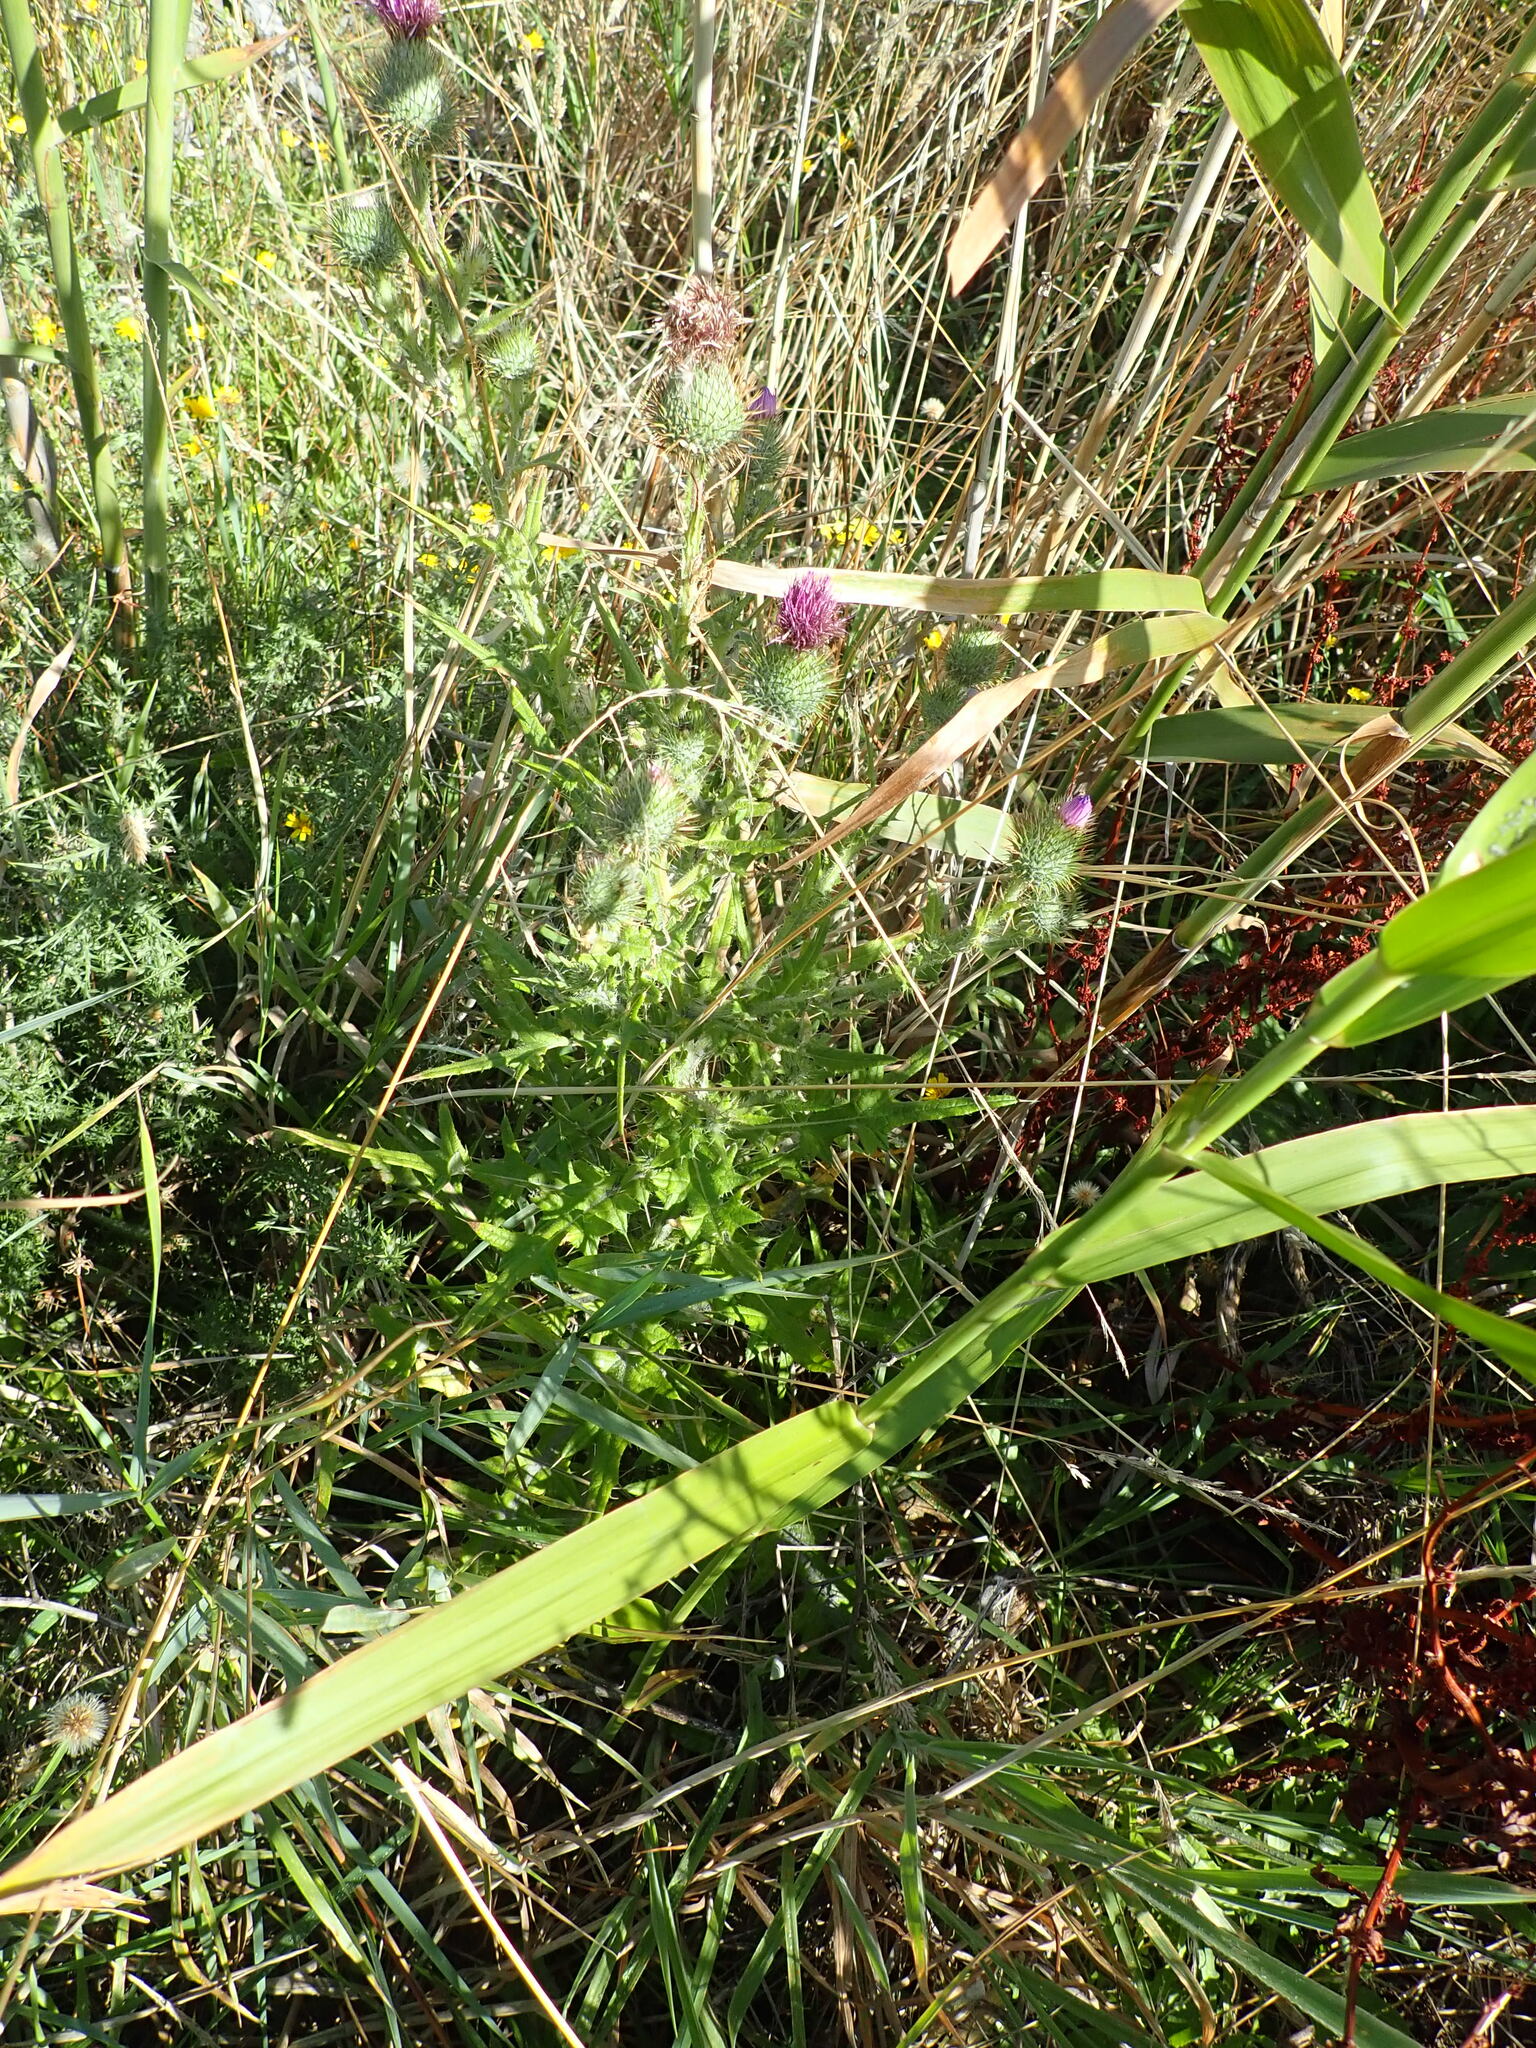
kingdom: Plantae
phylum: Tracheophyta
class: Magnoliopsida
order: Asterales
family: Asteraceae
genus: Cirsium
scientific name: Cirsium vulgare
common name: Bull thistle
